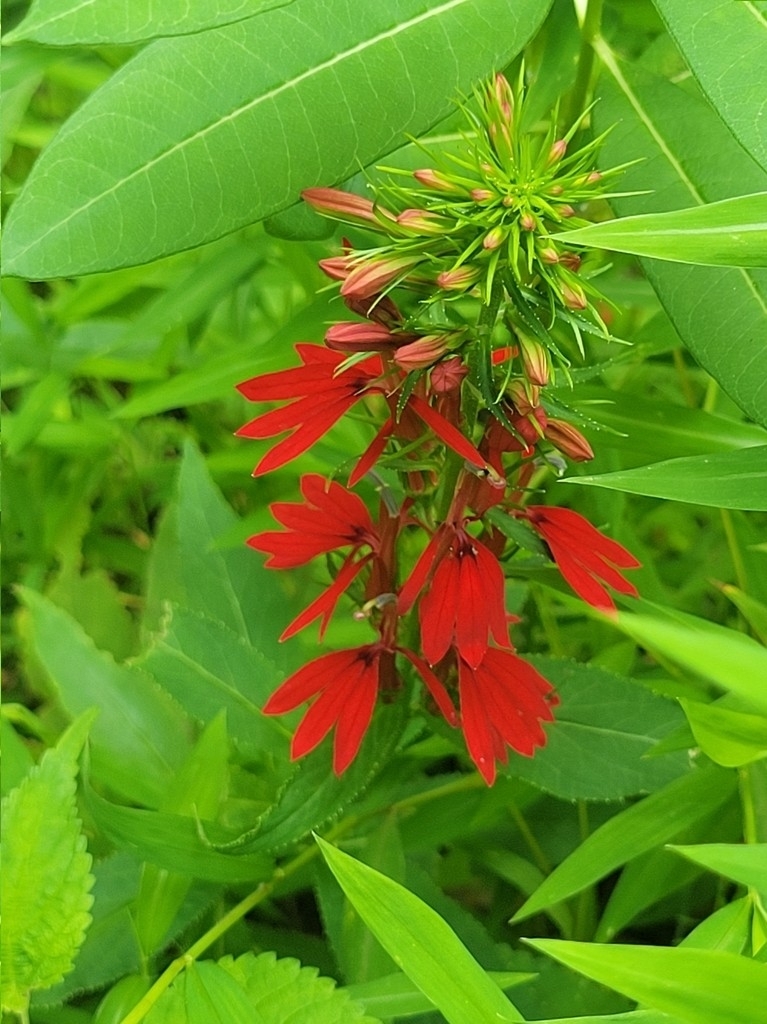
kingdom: Plantae
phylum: Tracheophyta
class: Magnoliopsida
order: Asterales
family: Campanulaceae
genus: Lobelia
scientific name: Lobelia cardinalis
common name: Cardinal flower
